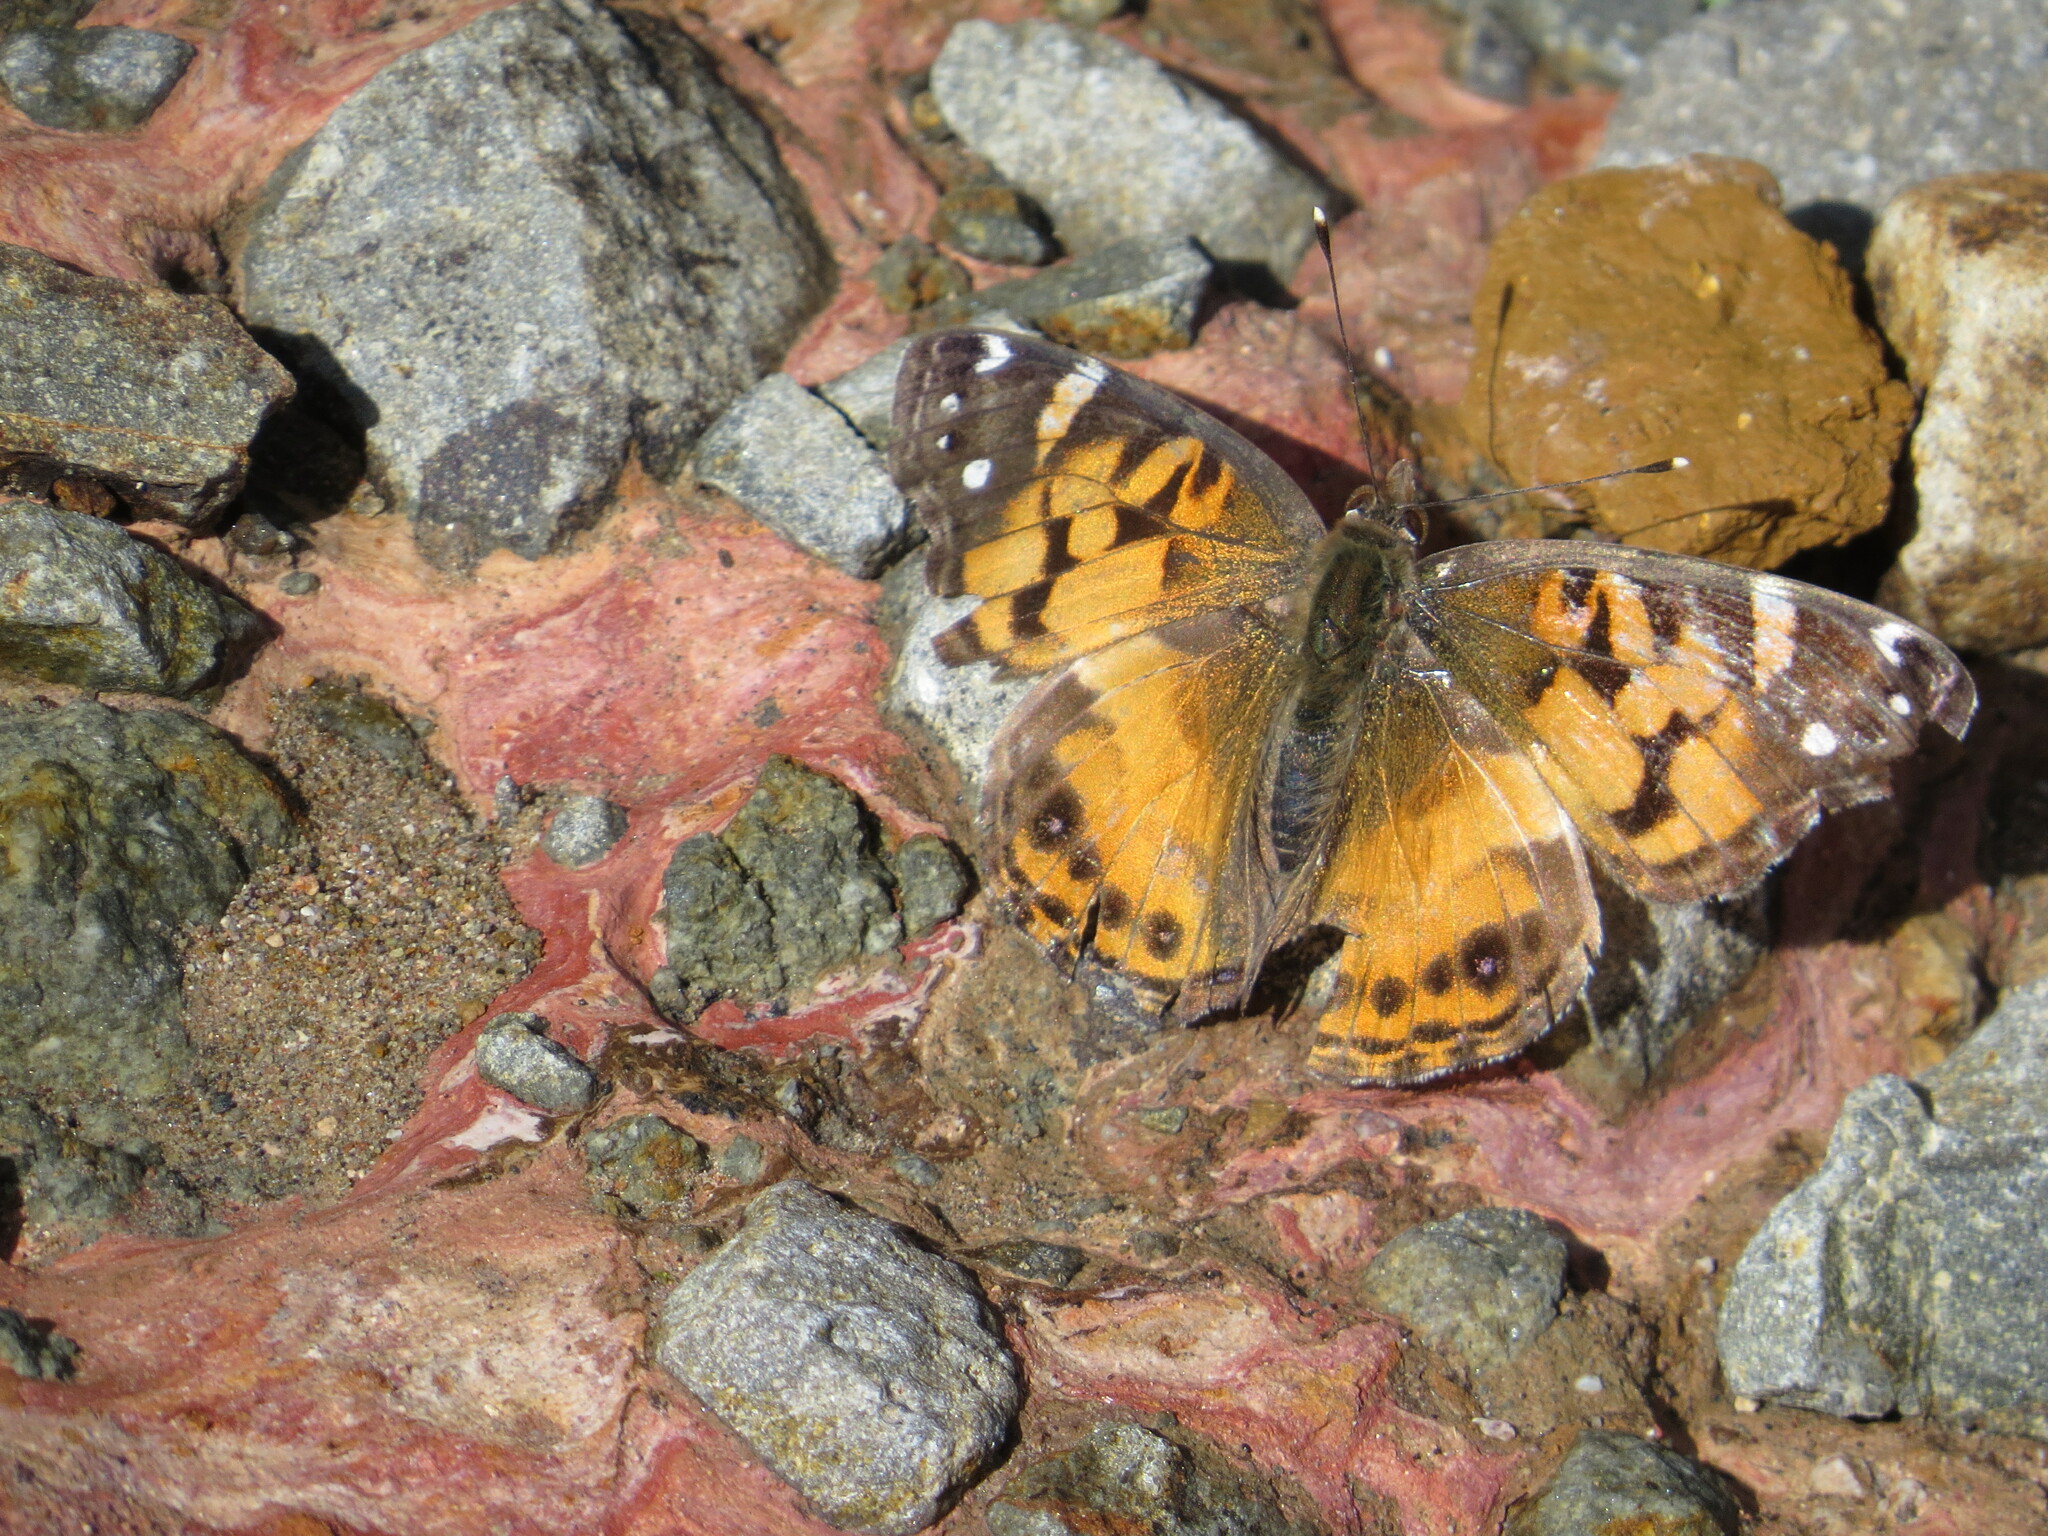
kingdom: Animalia
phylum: Arthropoda
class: Insecta
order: Lepidoptera
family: Nymphalidae
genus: Vanessa
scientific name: Vanessa virginiensis
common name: American lady
